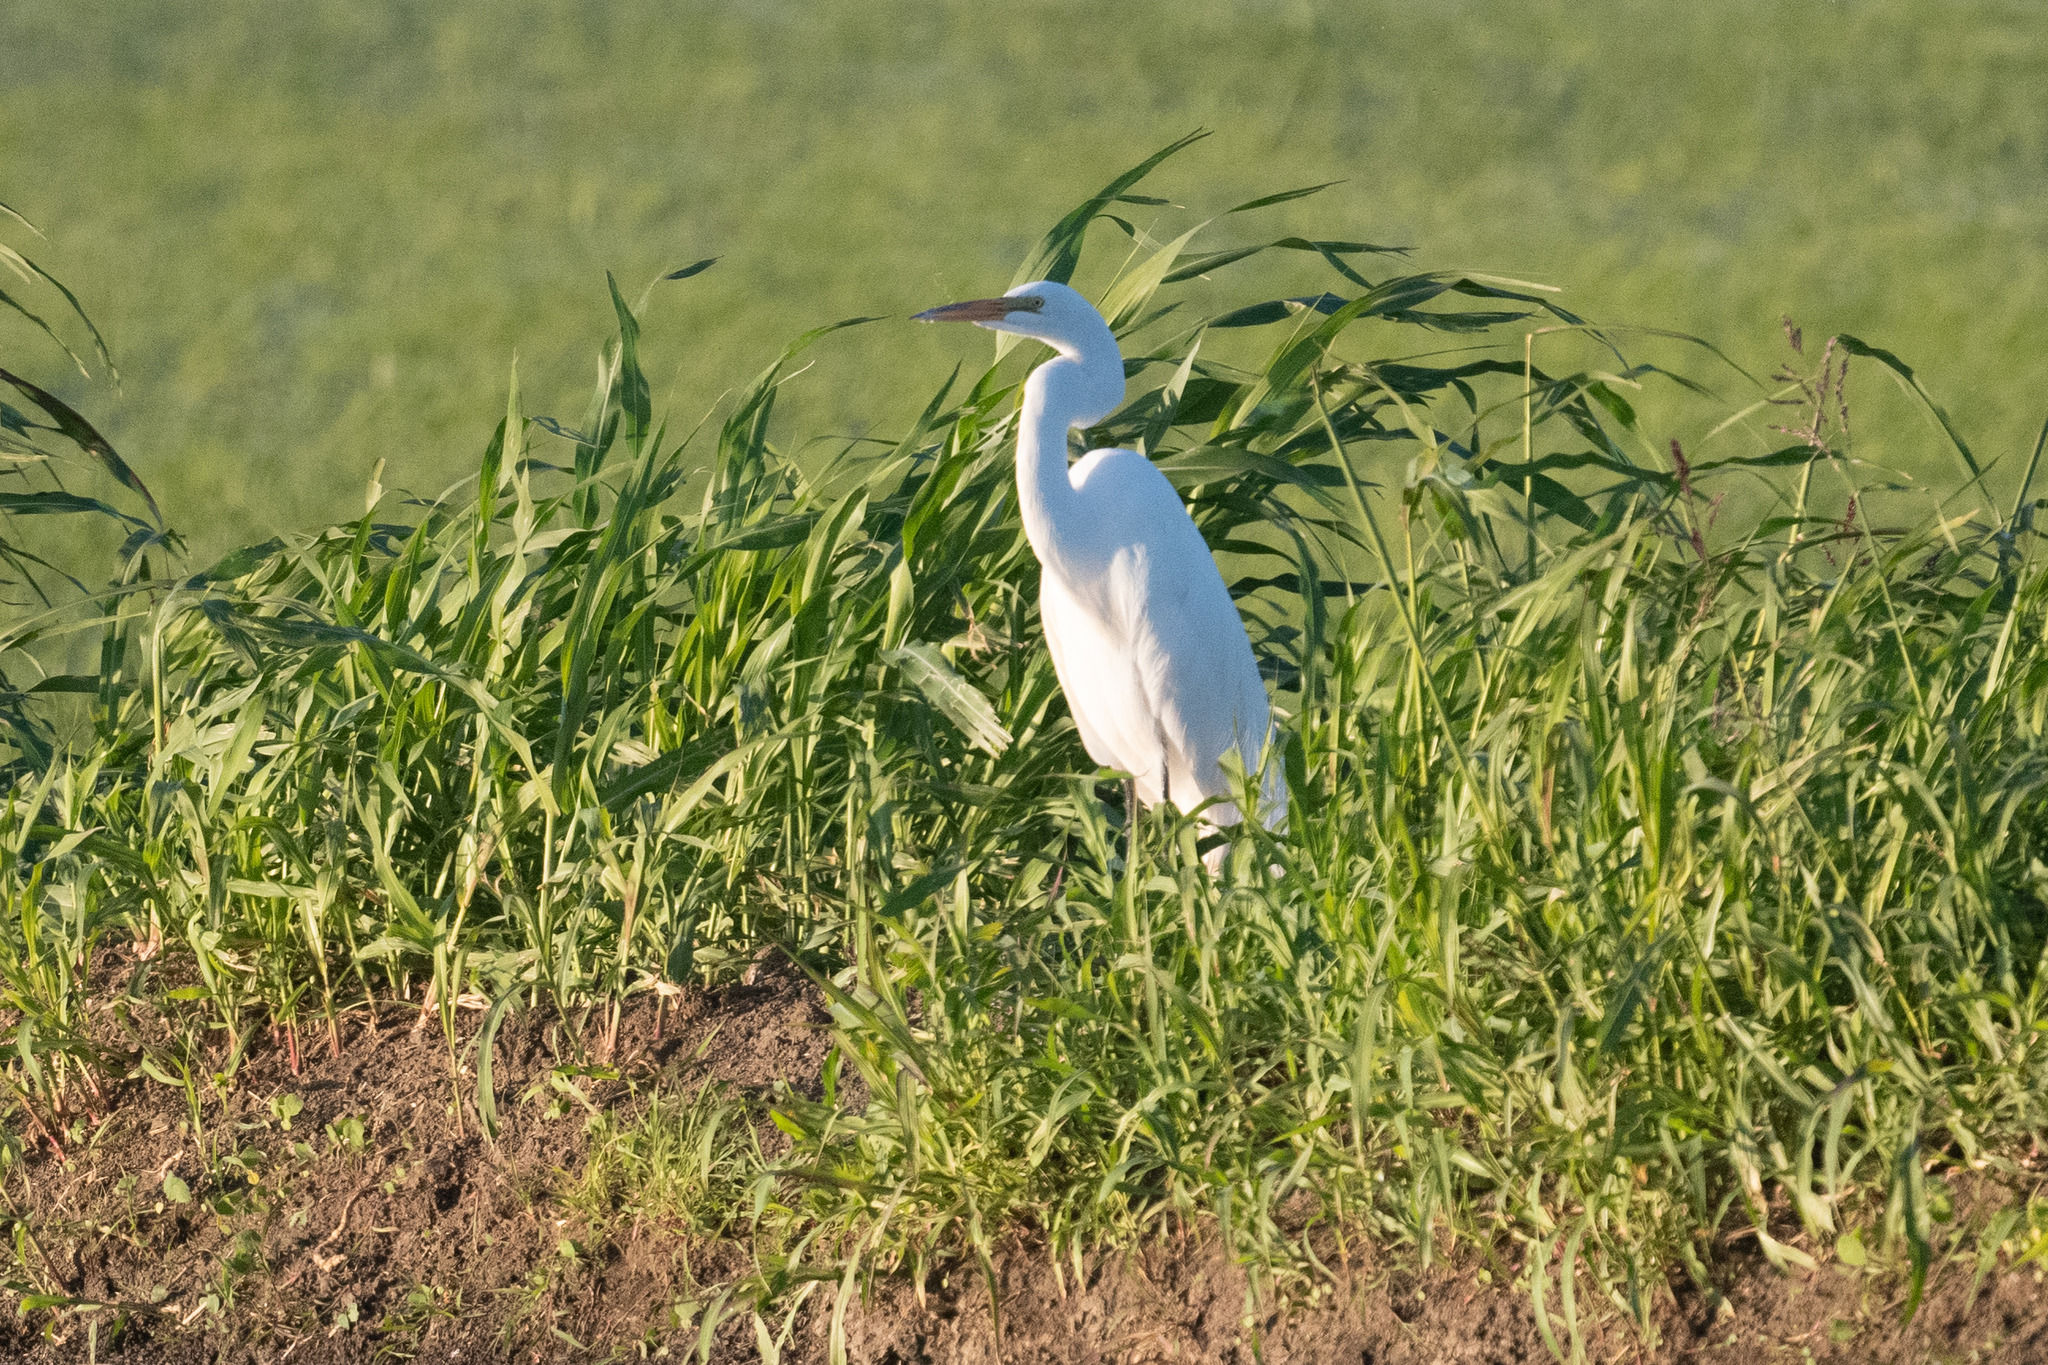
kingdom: Animalia
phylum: Chordata
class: Aves
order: Pelecaniformes
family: Ardeidae
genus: Ardea
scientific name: Ardea alba
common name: Great egret
